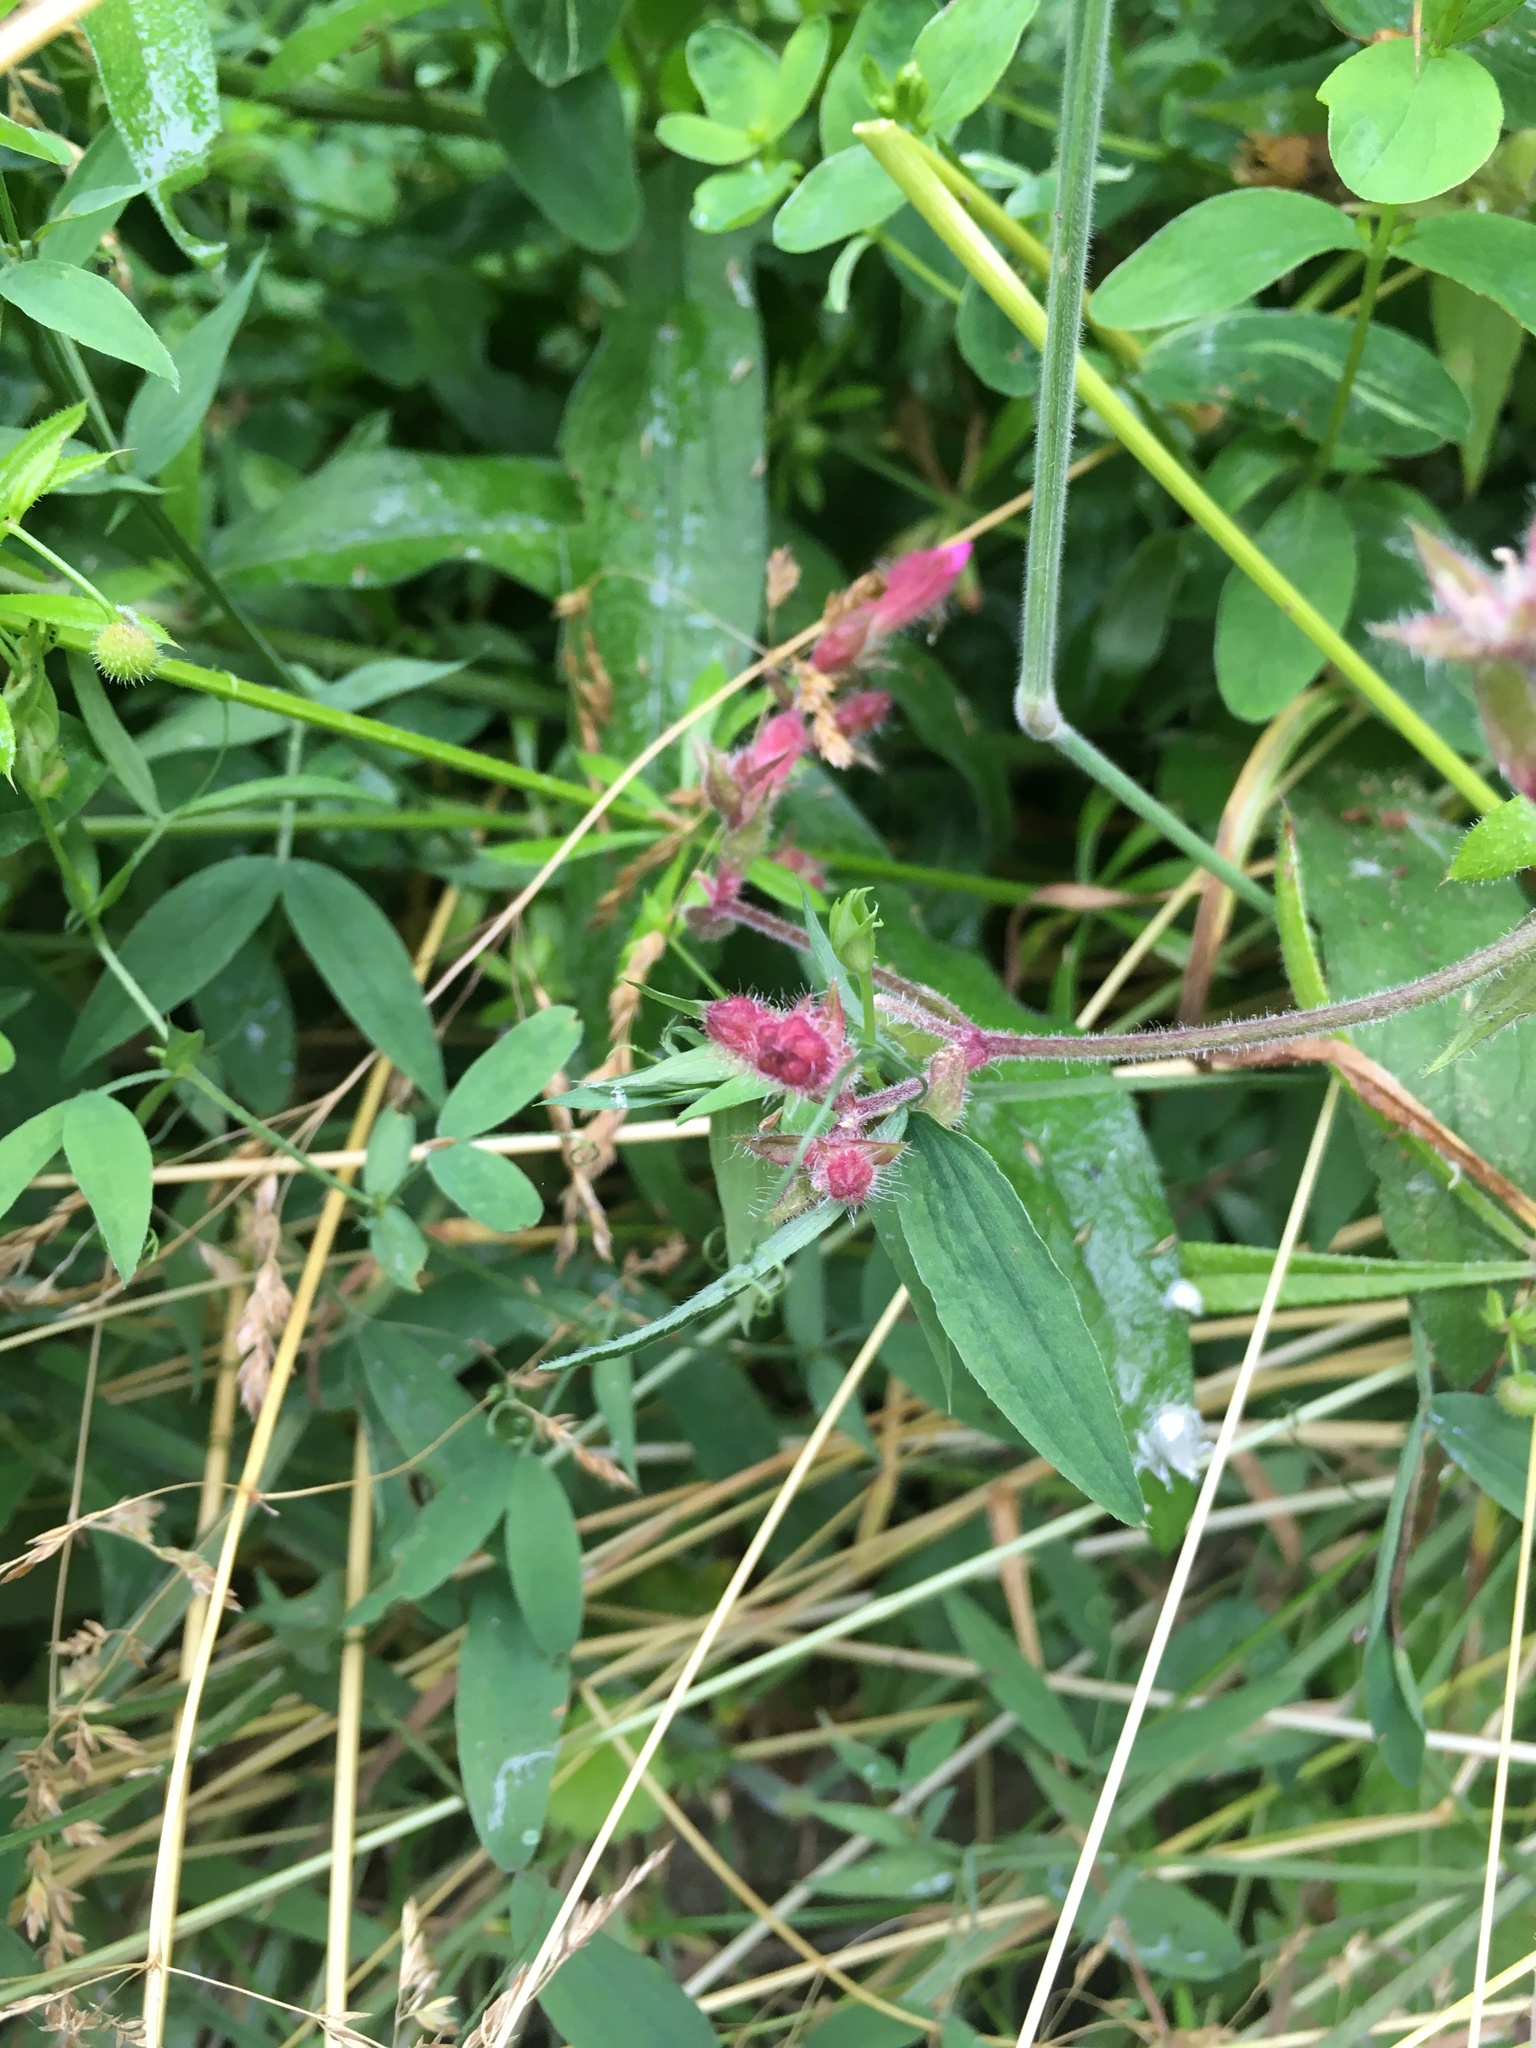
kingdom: Plantae
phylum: Tracheophyta
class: Magnoliopsida
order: Caryophyllales
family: Caryophyllaceae
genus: Silene
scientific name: Silene dioica
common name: Red campion
